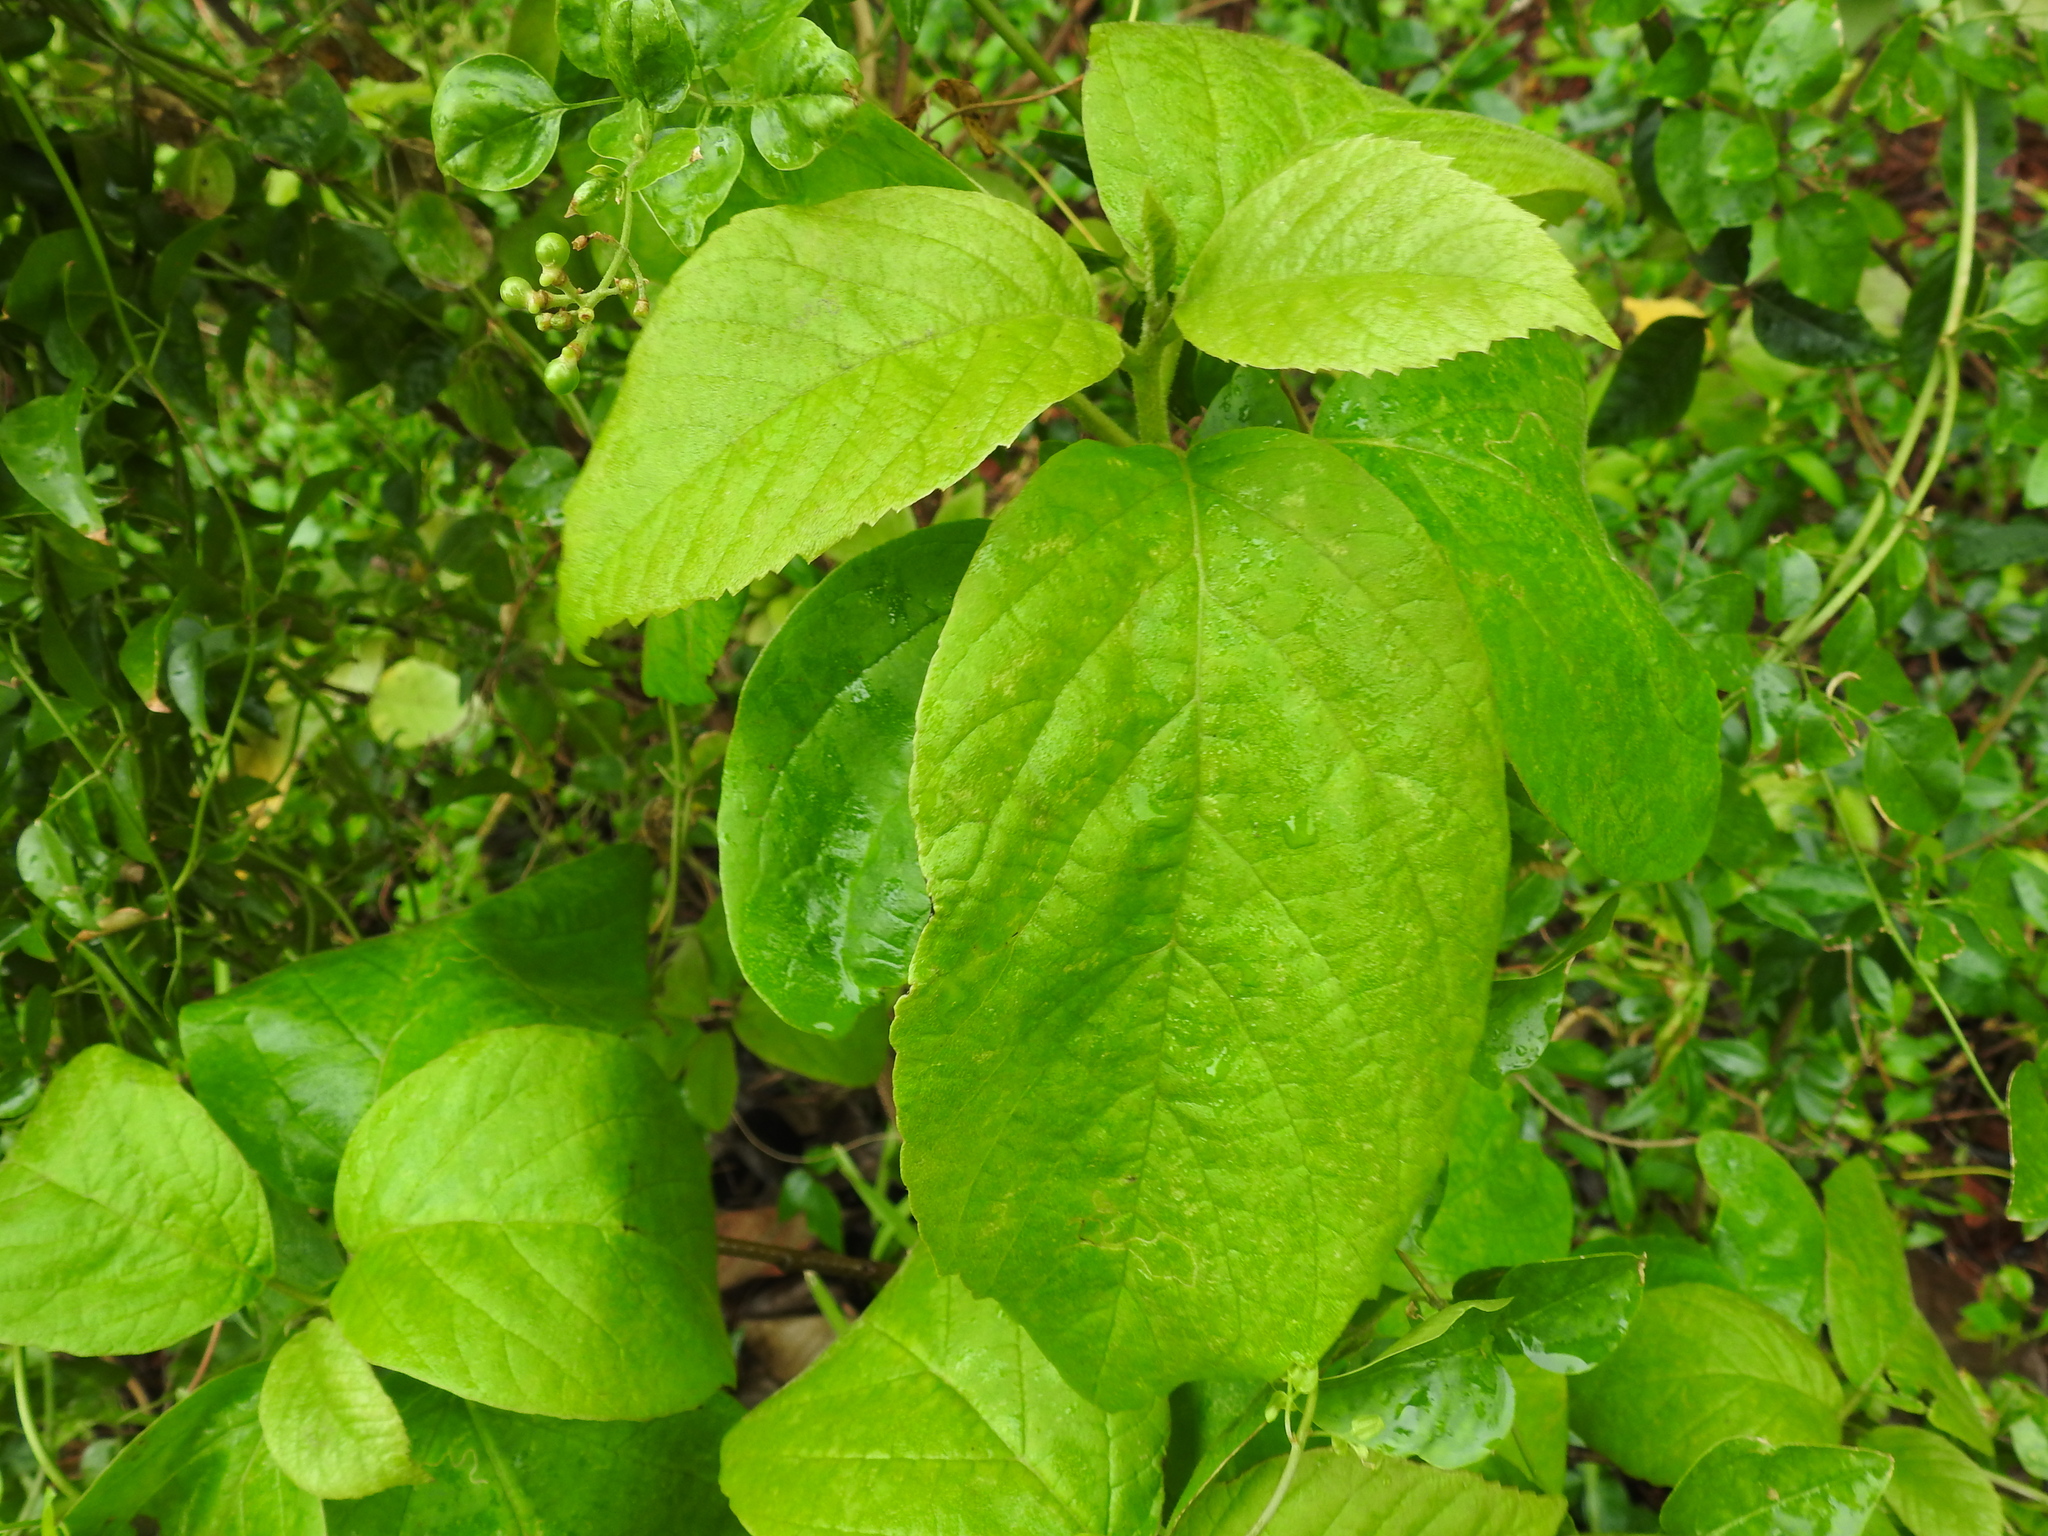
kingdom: Plantae
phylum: Tracheophyta
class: Magnoliopsida
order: Boraginales
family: Cordiaceae
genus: Cordia
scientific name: Cordia sebestena
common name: Largeleaf geigertree
